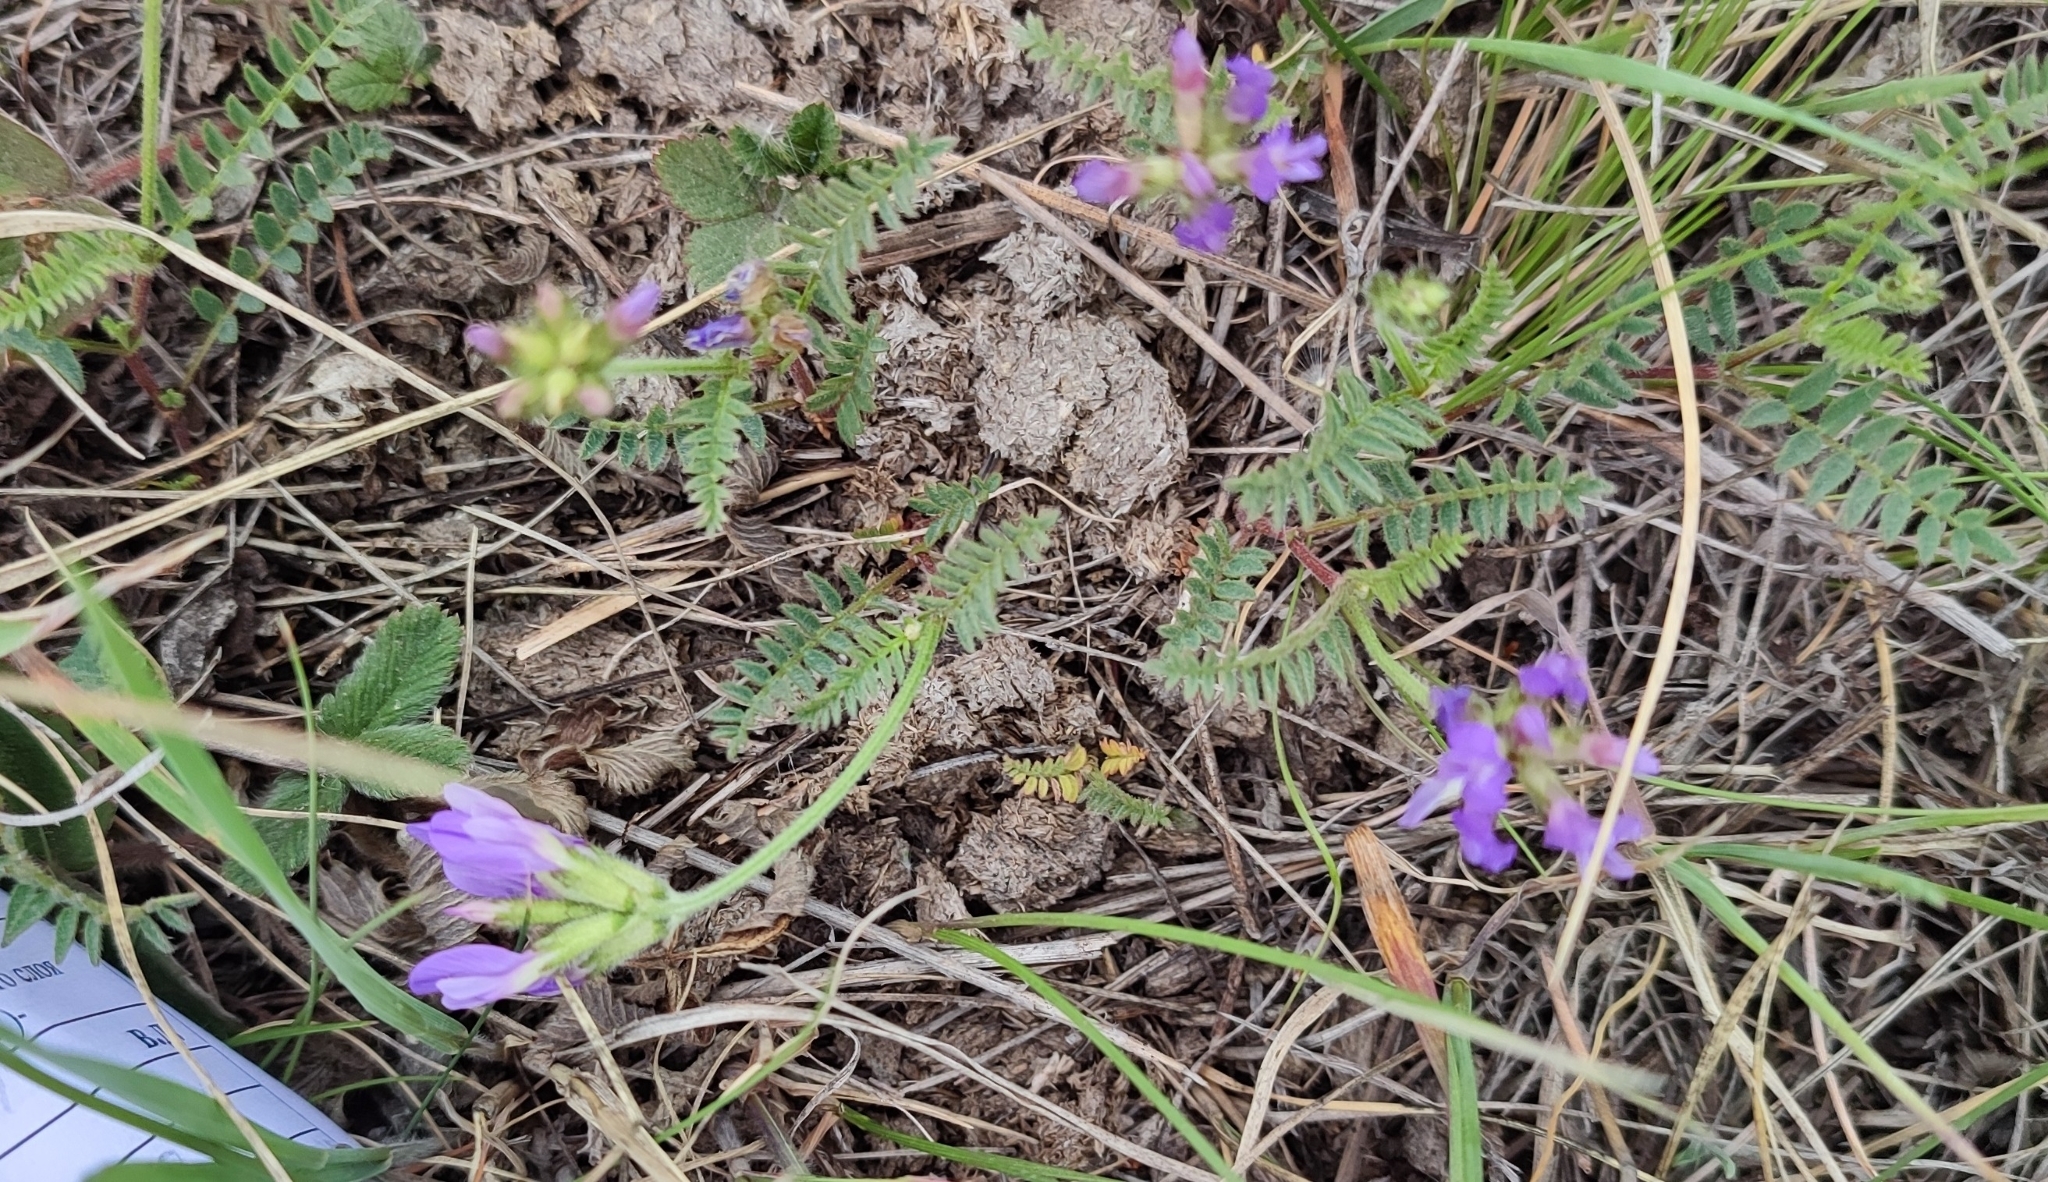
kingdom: Plantae
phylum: Tracheophyta
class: Magnoliopsida
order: Fabales
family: Fabaceae
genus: Astragalus
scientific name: Astragalus danicus
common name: Purple milk-vetch
